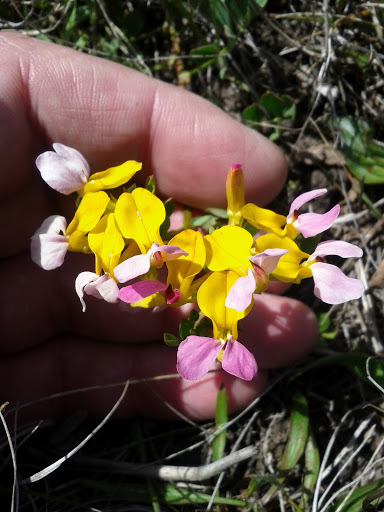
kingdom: Plantae
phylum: Tracheophyta
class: Magnoliopsida
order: Fabales
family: Fabaceae
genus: Hosackia
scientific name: Hosackia gracilis
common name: Seaside bird's-foot lotus
